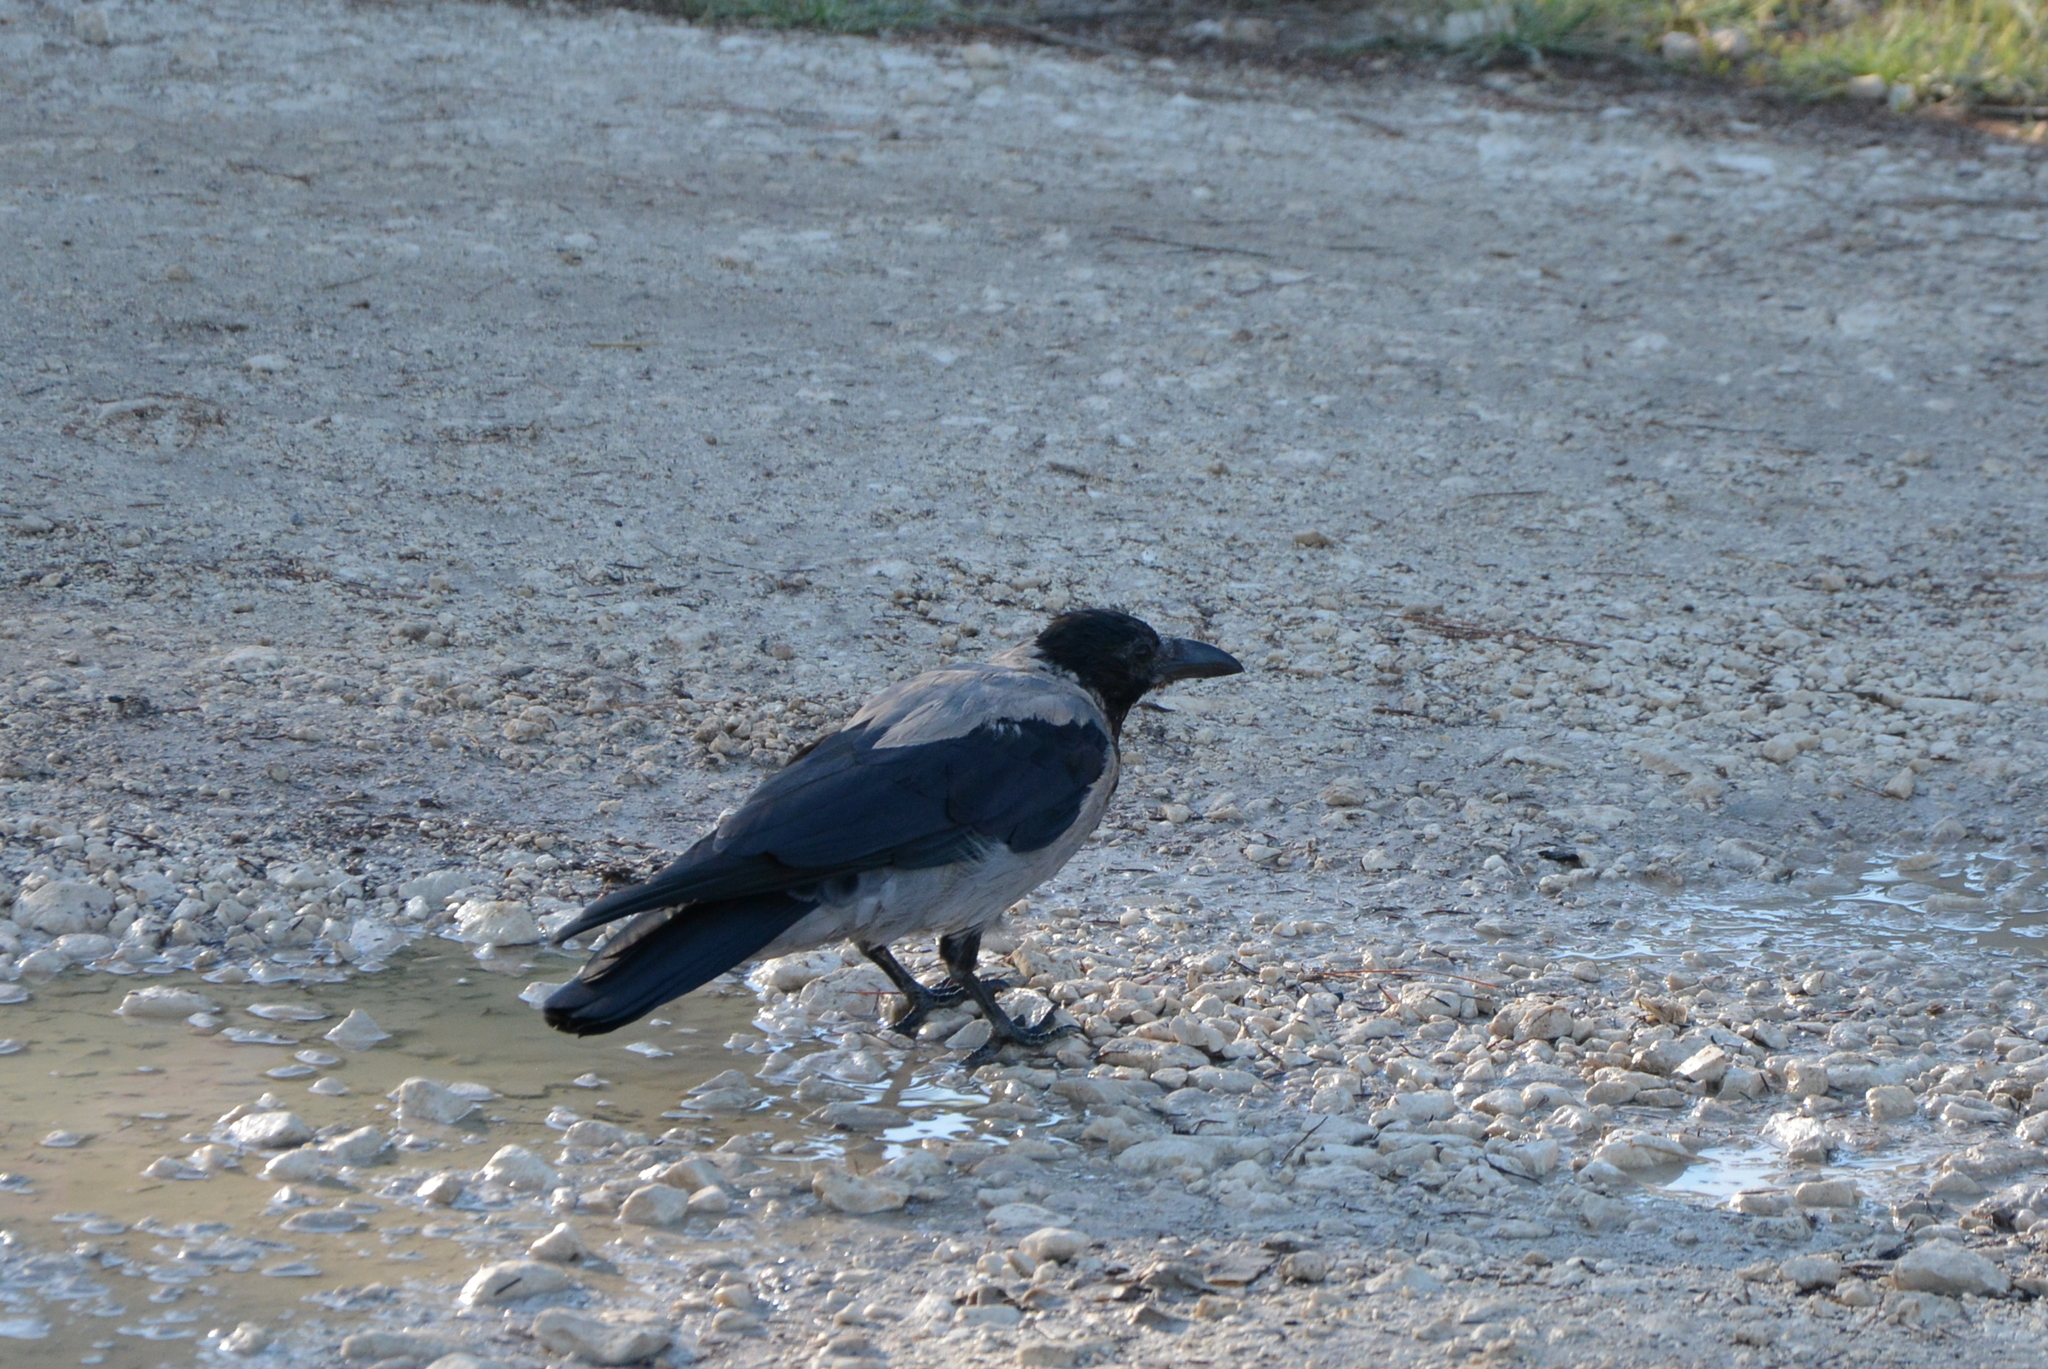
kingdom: Animalia
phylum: Chordata
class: Aves
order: Passeriformes
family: Corvidae
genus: Corvus
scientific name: Corvus cornix
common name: Hooded crow
